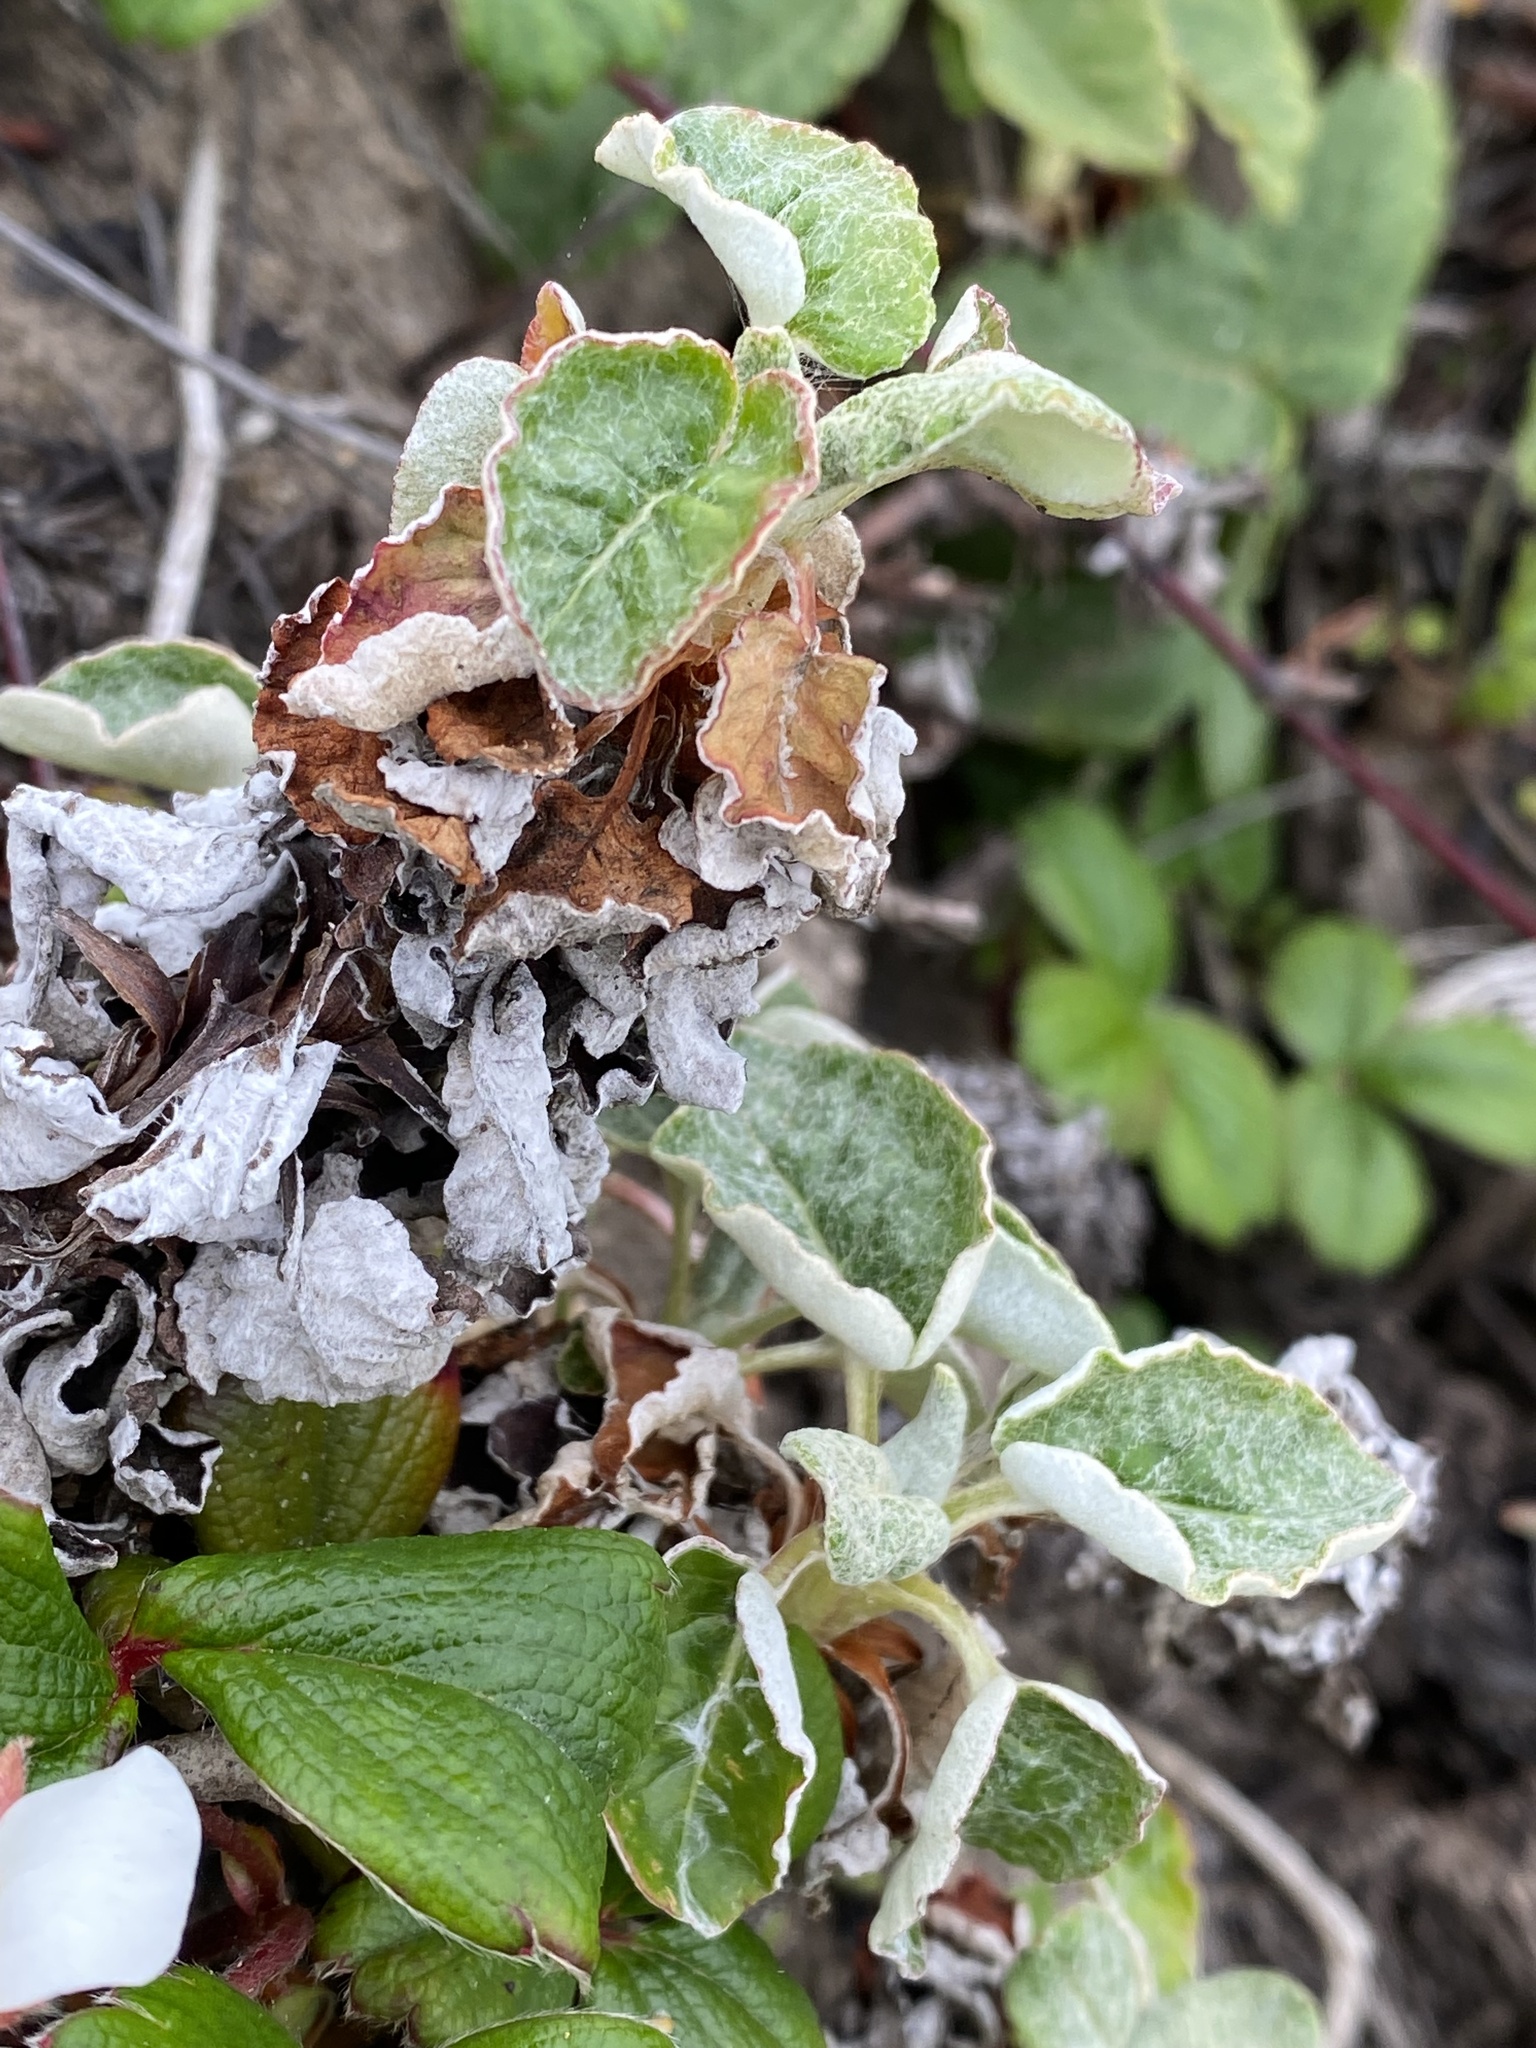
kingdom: Plantae
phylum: Tracheophyta
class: Magnoliopsida
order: Caryophyllales
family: Polygonaceae
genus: Eriogonum
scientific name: Eriogonum latifolium
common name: Seaside wild buckwheat
